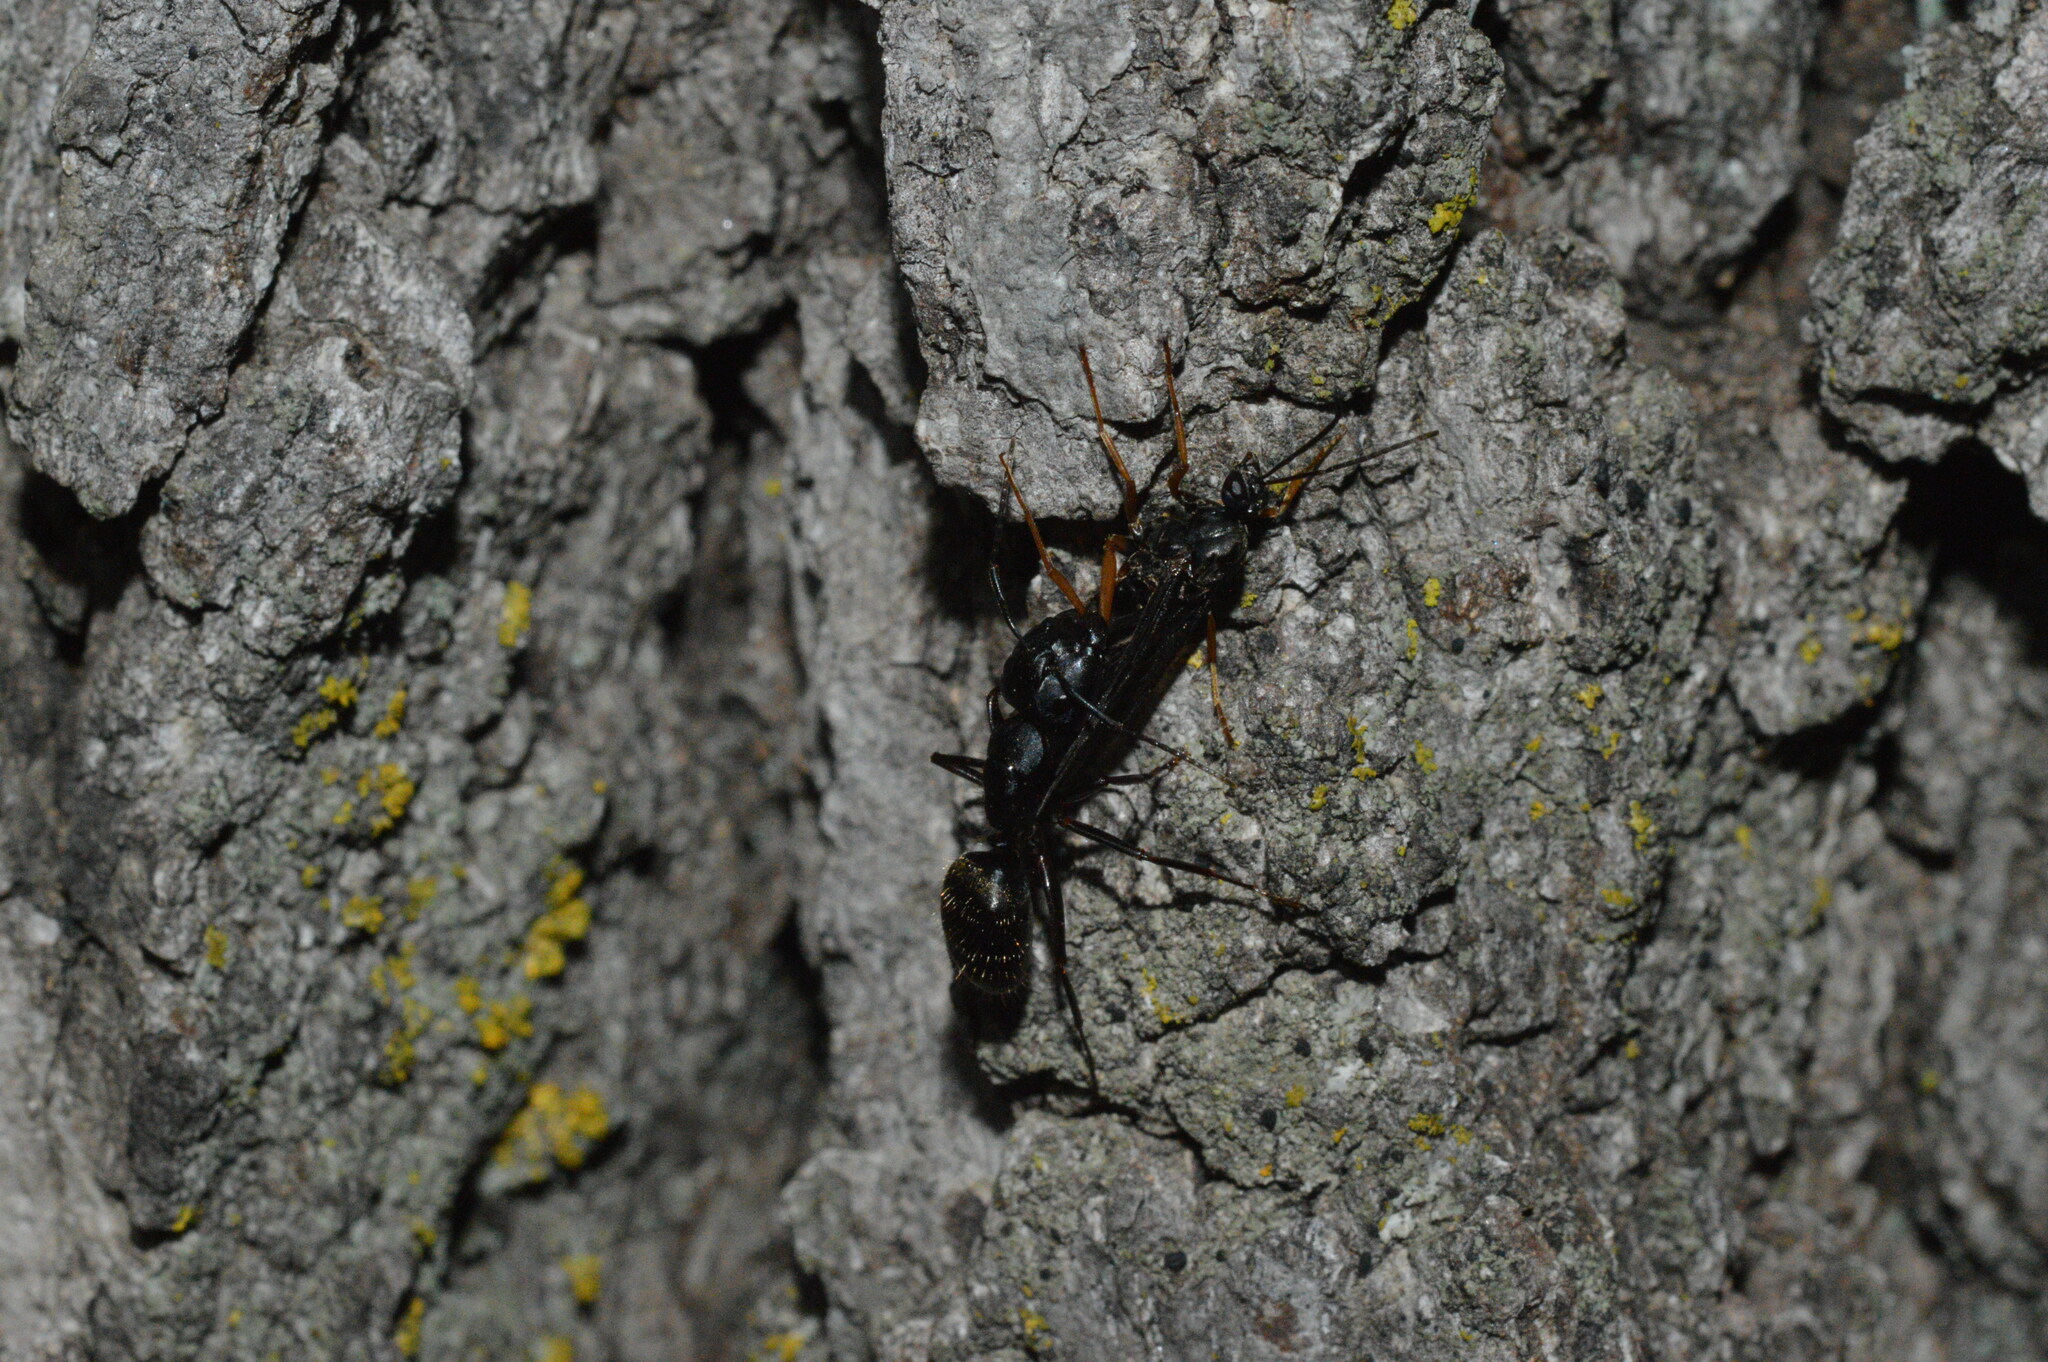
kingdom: Animalia
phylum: Arthropoda
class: Insecta
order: Hymenoptera
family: Formicidae
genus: Camponotus
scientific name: Camponotus pennsylvanicus
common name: Black carpenter ant
